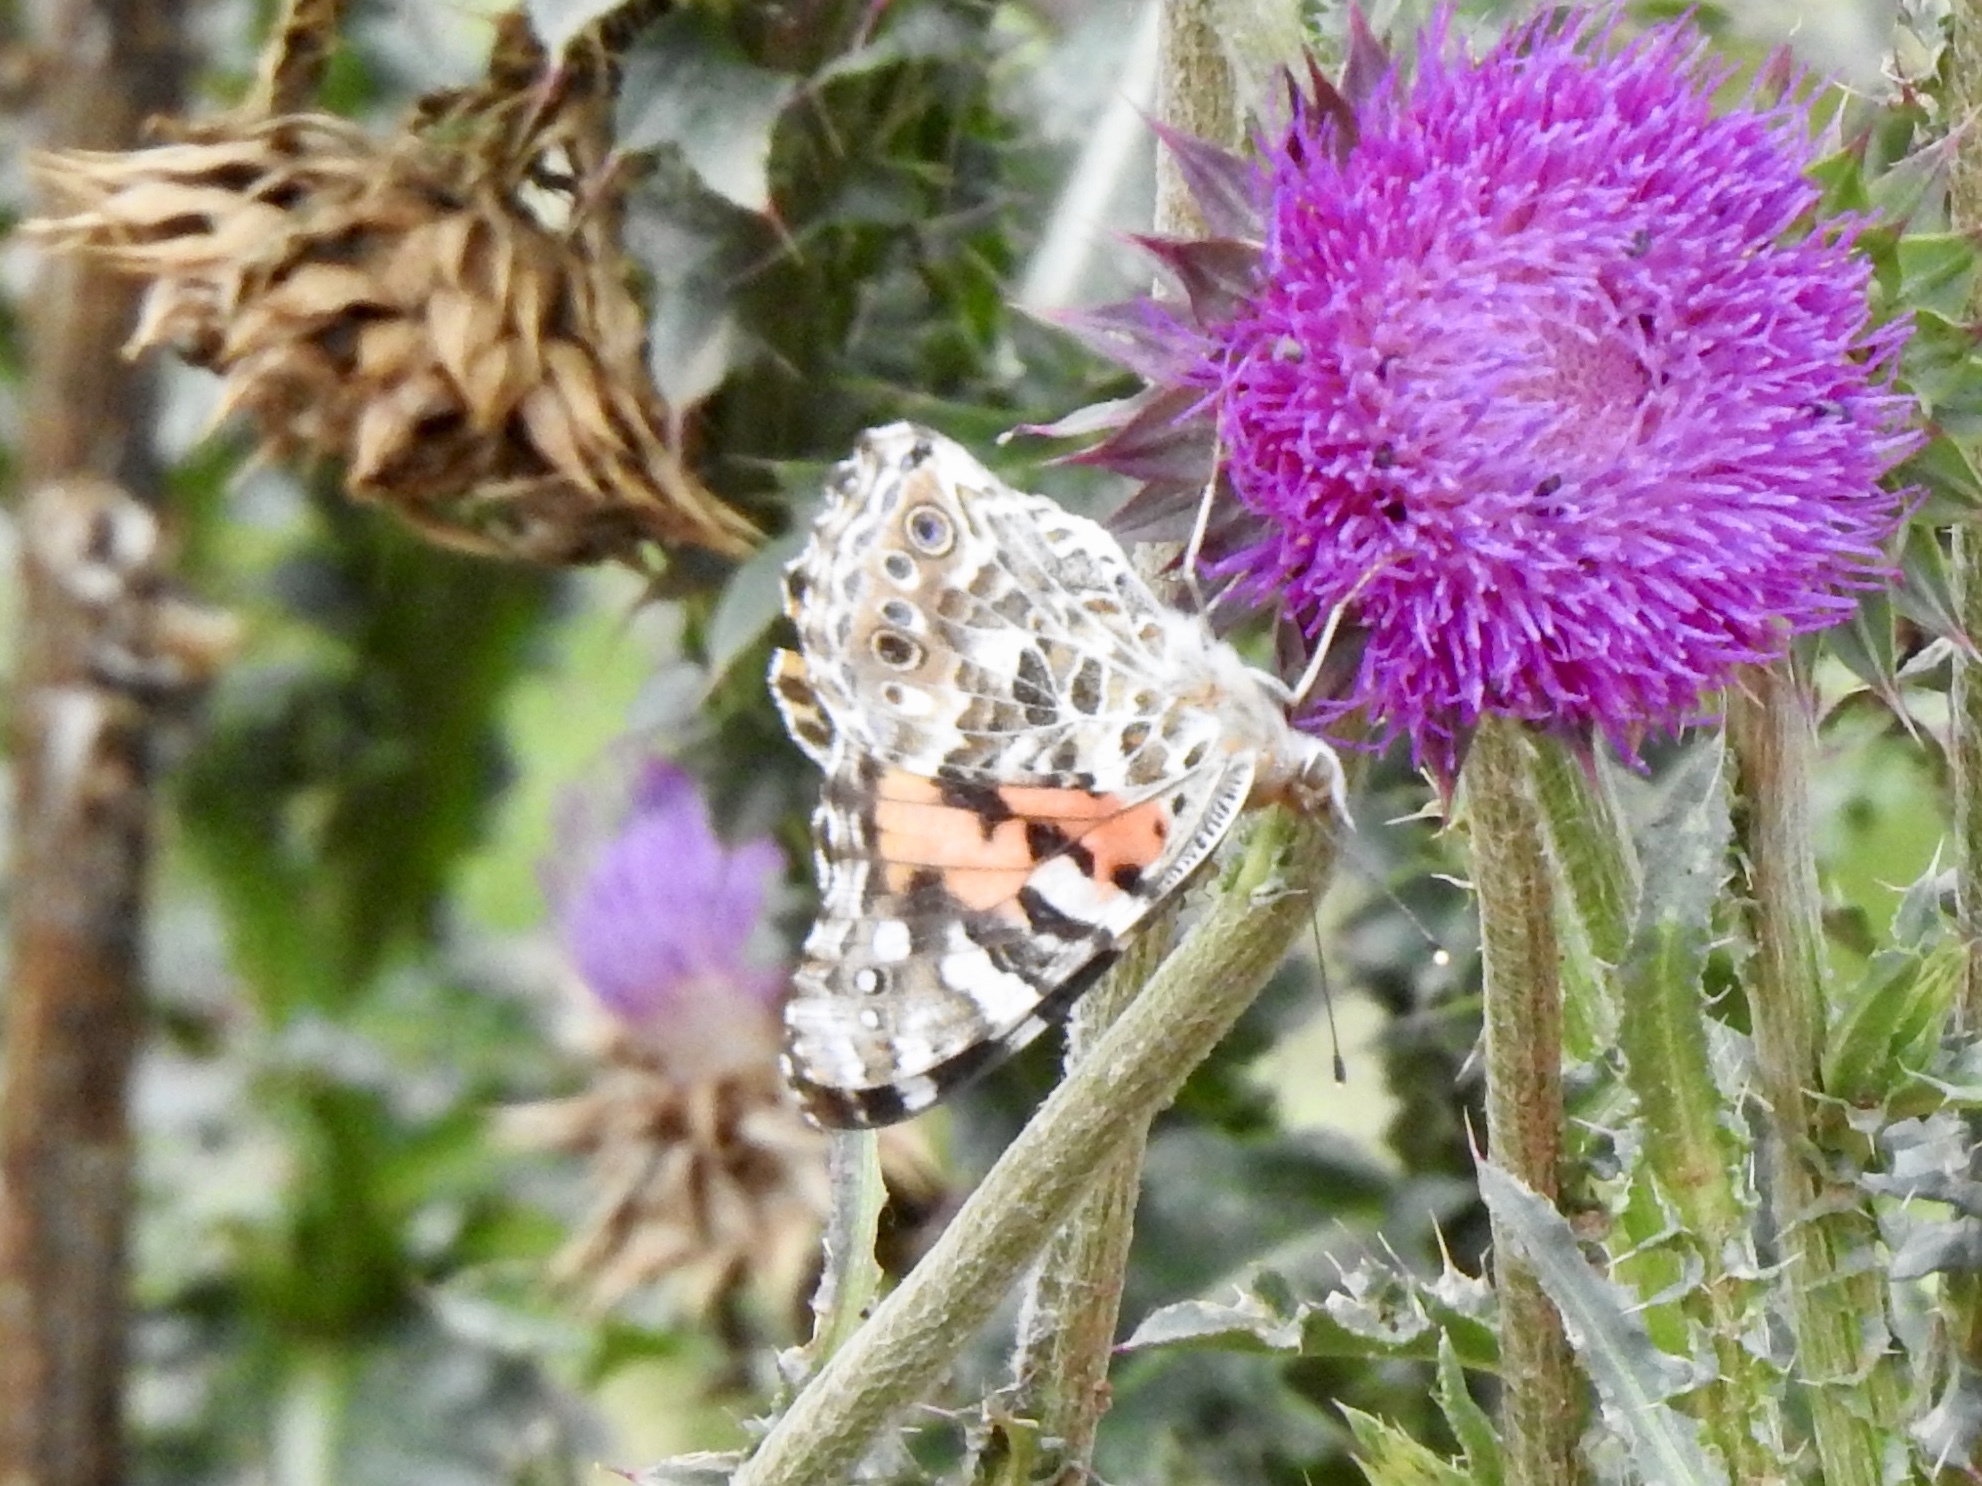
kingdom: Animalia
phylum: Arthropoda
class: Insecta
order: Lepidoptera
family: Nymphalidae
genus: Vanessa
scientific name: Vanessa cardui
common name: Painted lady
